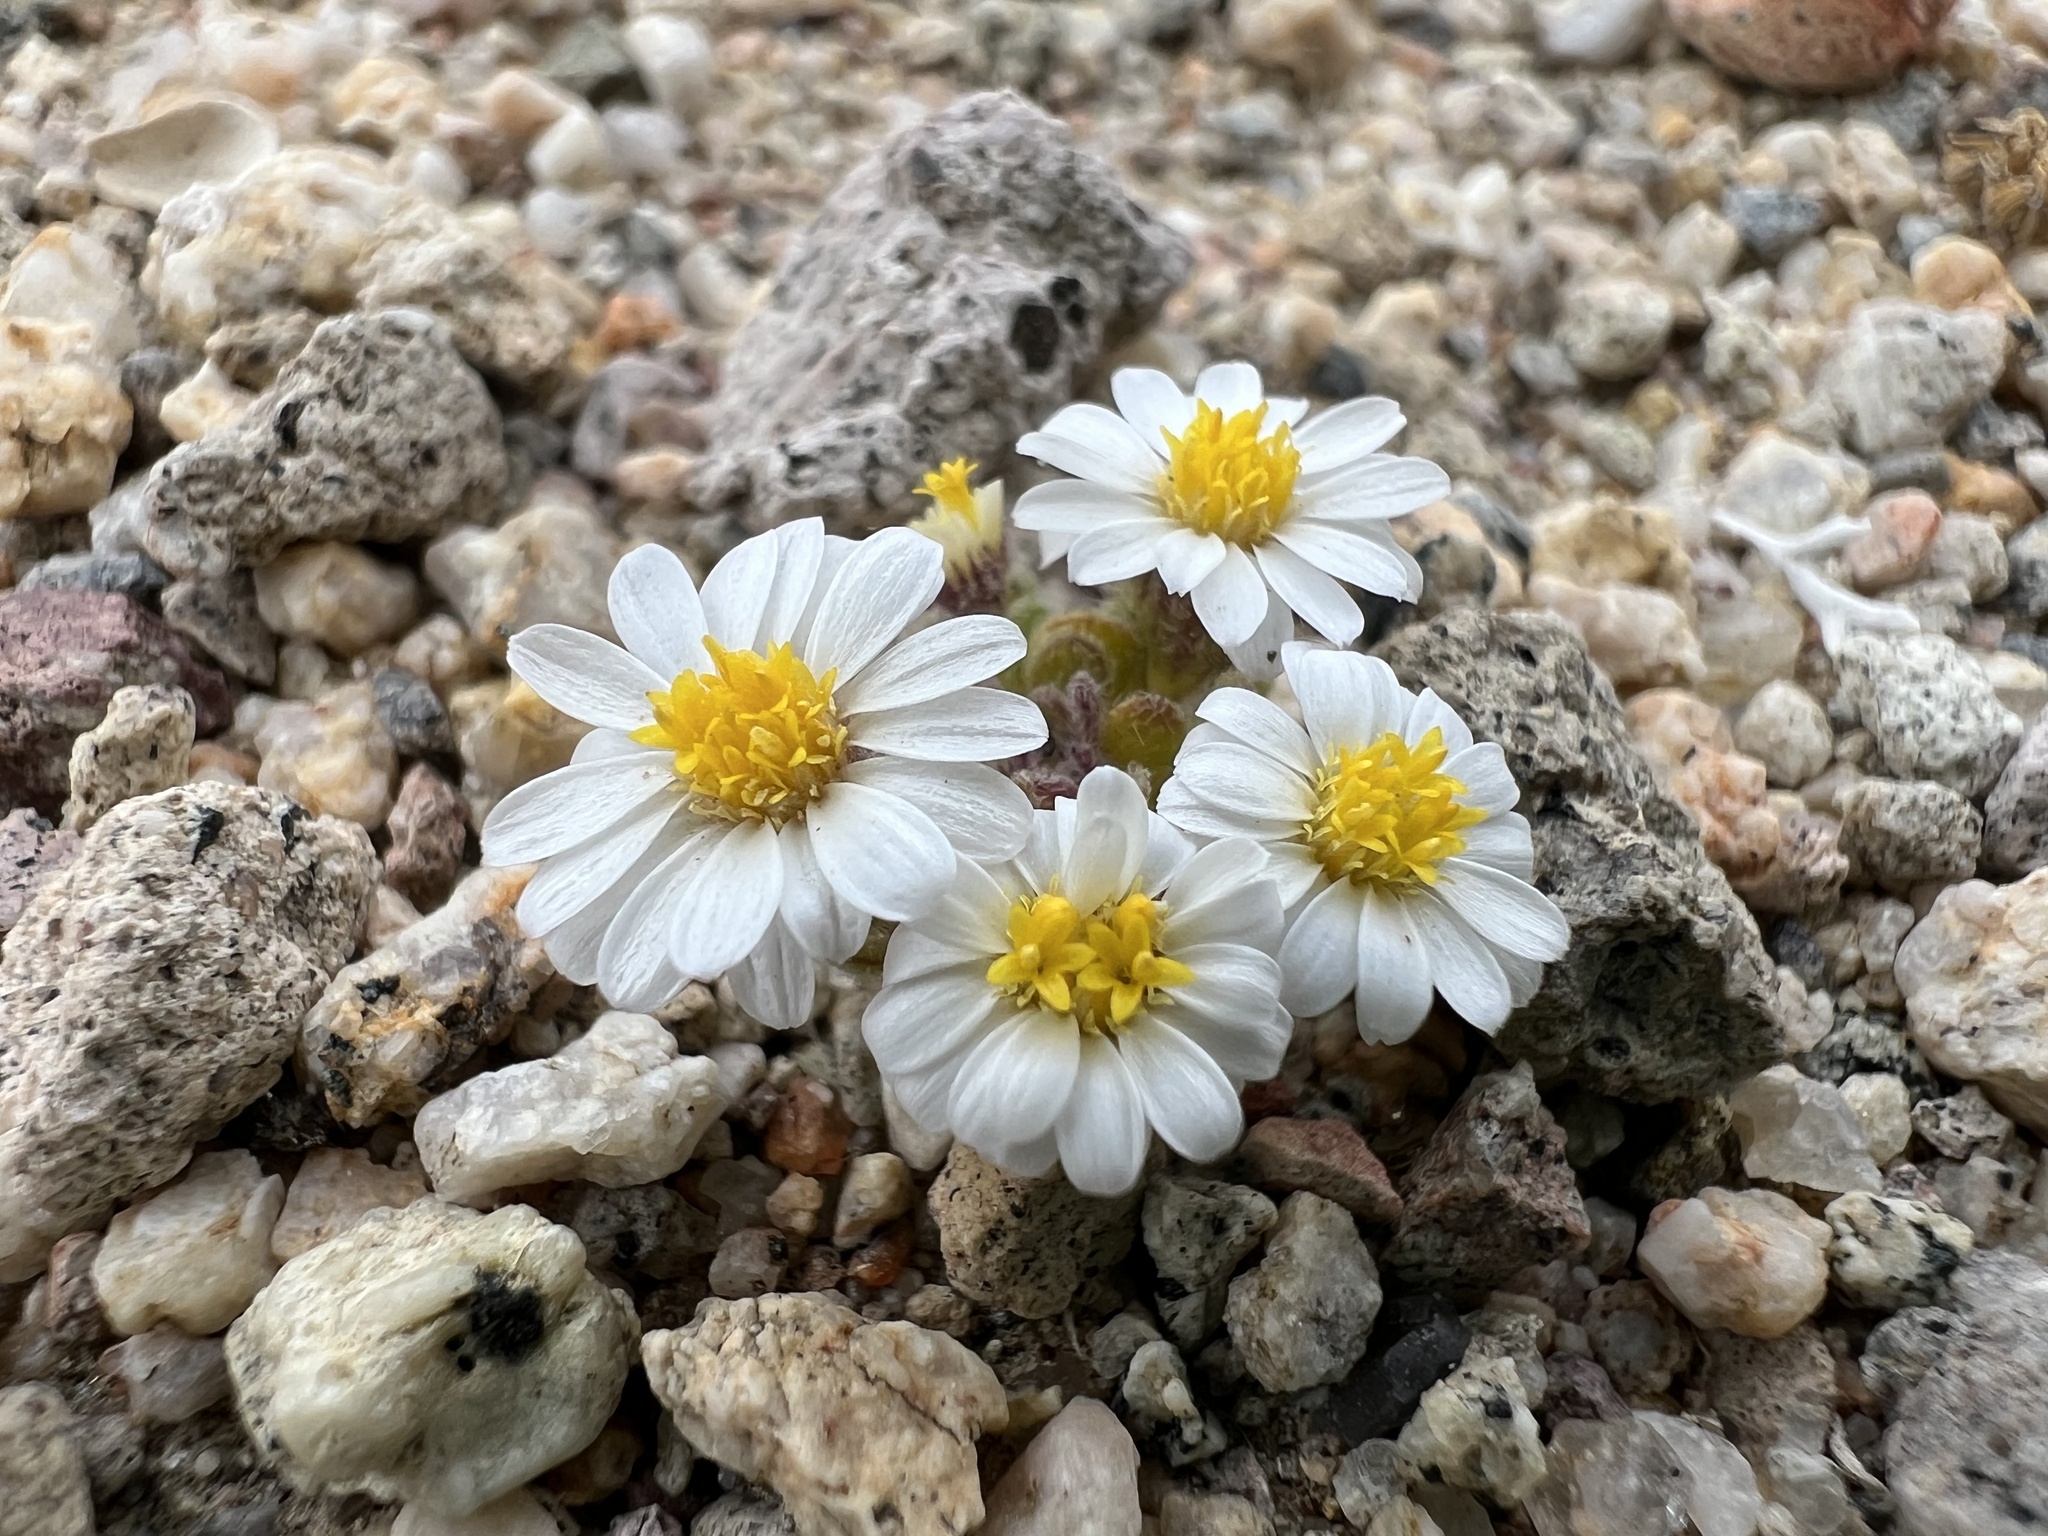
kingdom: Plantae
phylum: Tracheophyta
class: Magnoliopsida
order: Asterales
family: Asteraceae
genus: Monoptilon
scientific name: Monoptilon bellioides
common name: Bristly desertstar
